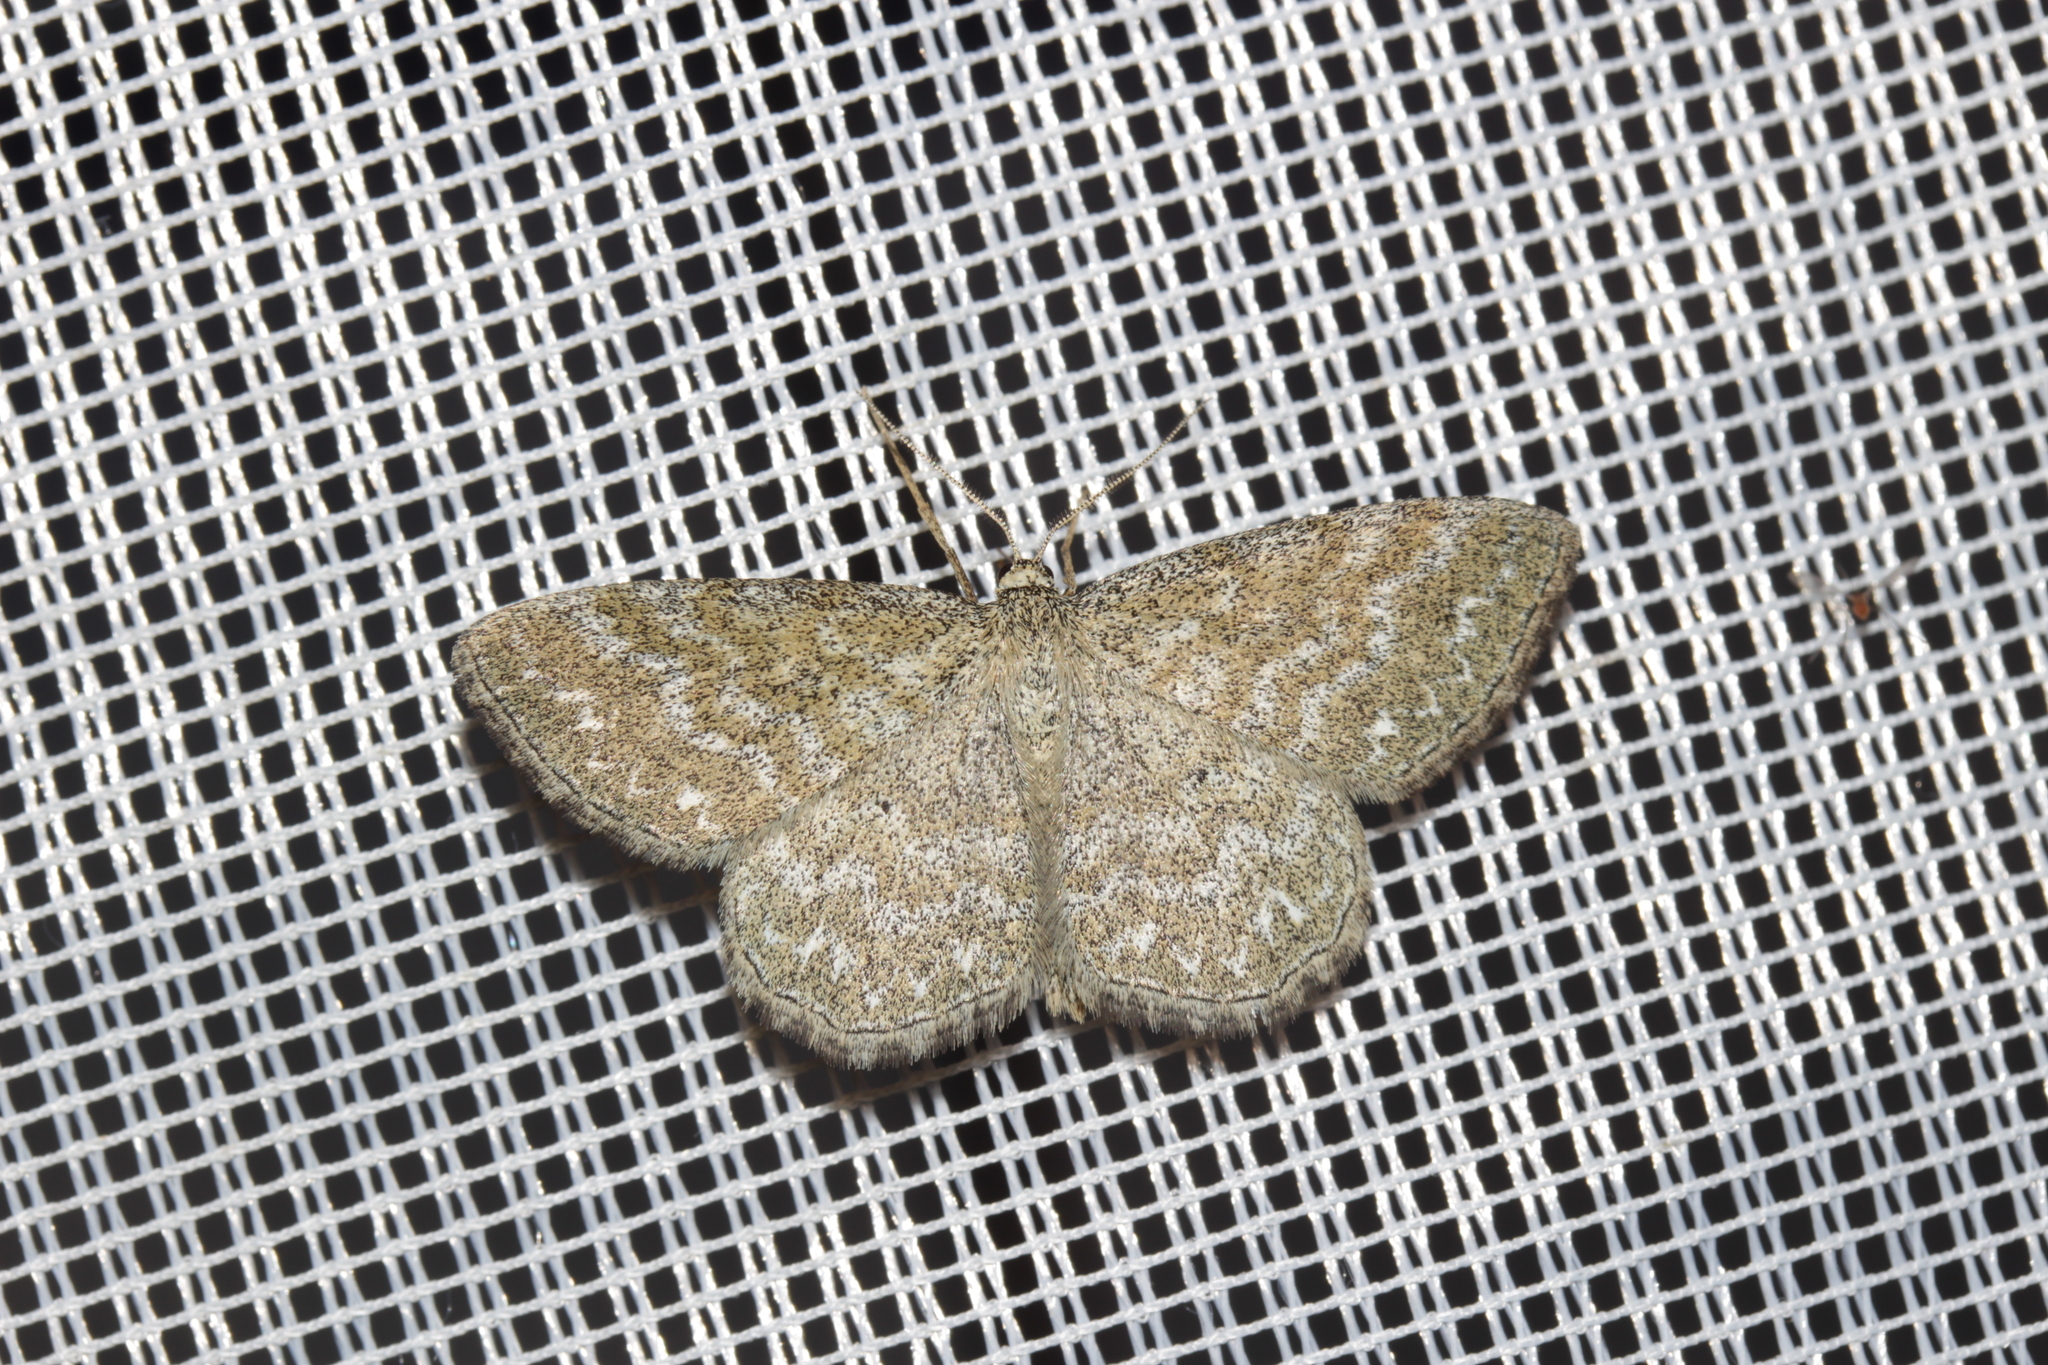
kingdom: Animalia
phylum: Arthropoda
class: Insecta
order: Lepidoptera
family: Geometridae
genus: Scopula
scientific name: Scopula immorata
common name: Lewes wave
